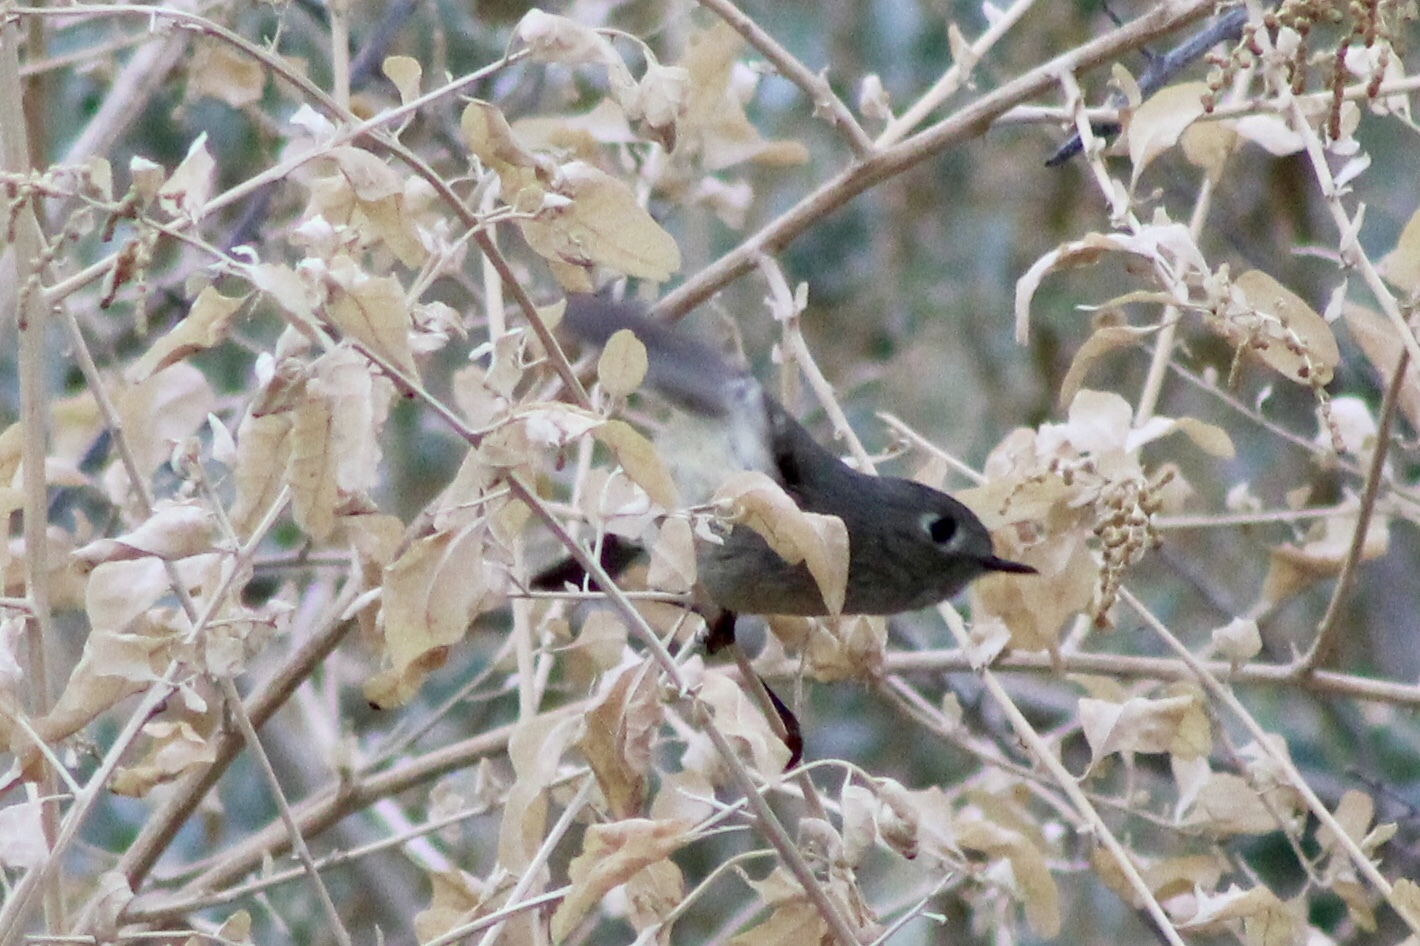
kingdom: Animalia
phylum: Chordata
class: Aves
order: Passeriformes
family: Regulidae
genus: Regulus
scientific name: Regulus calendula
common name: Ruby-crowned kinglet
